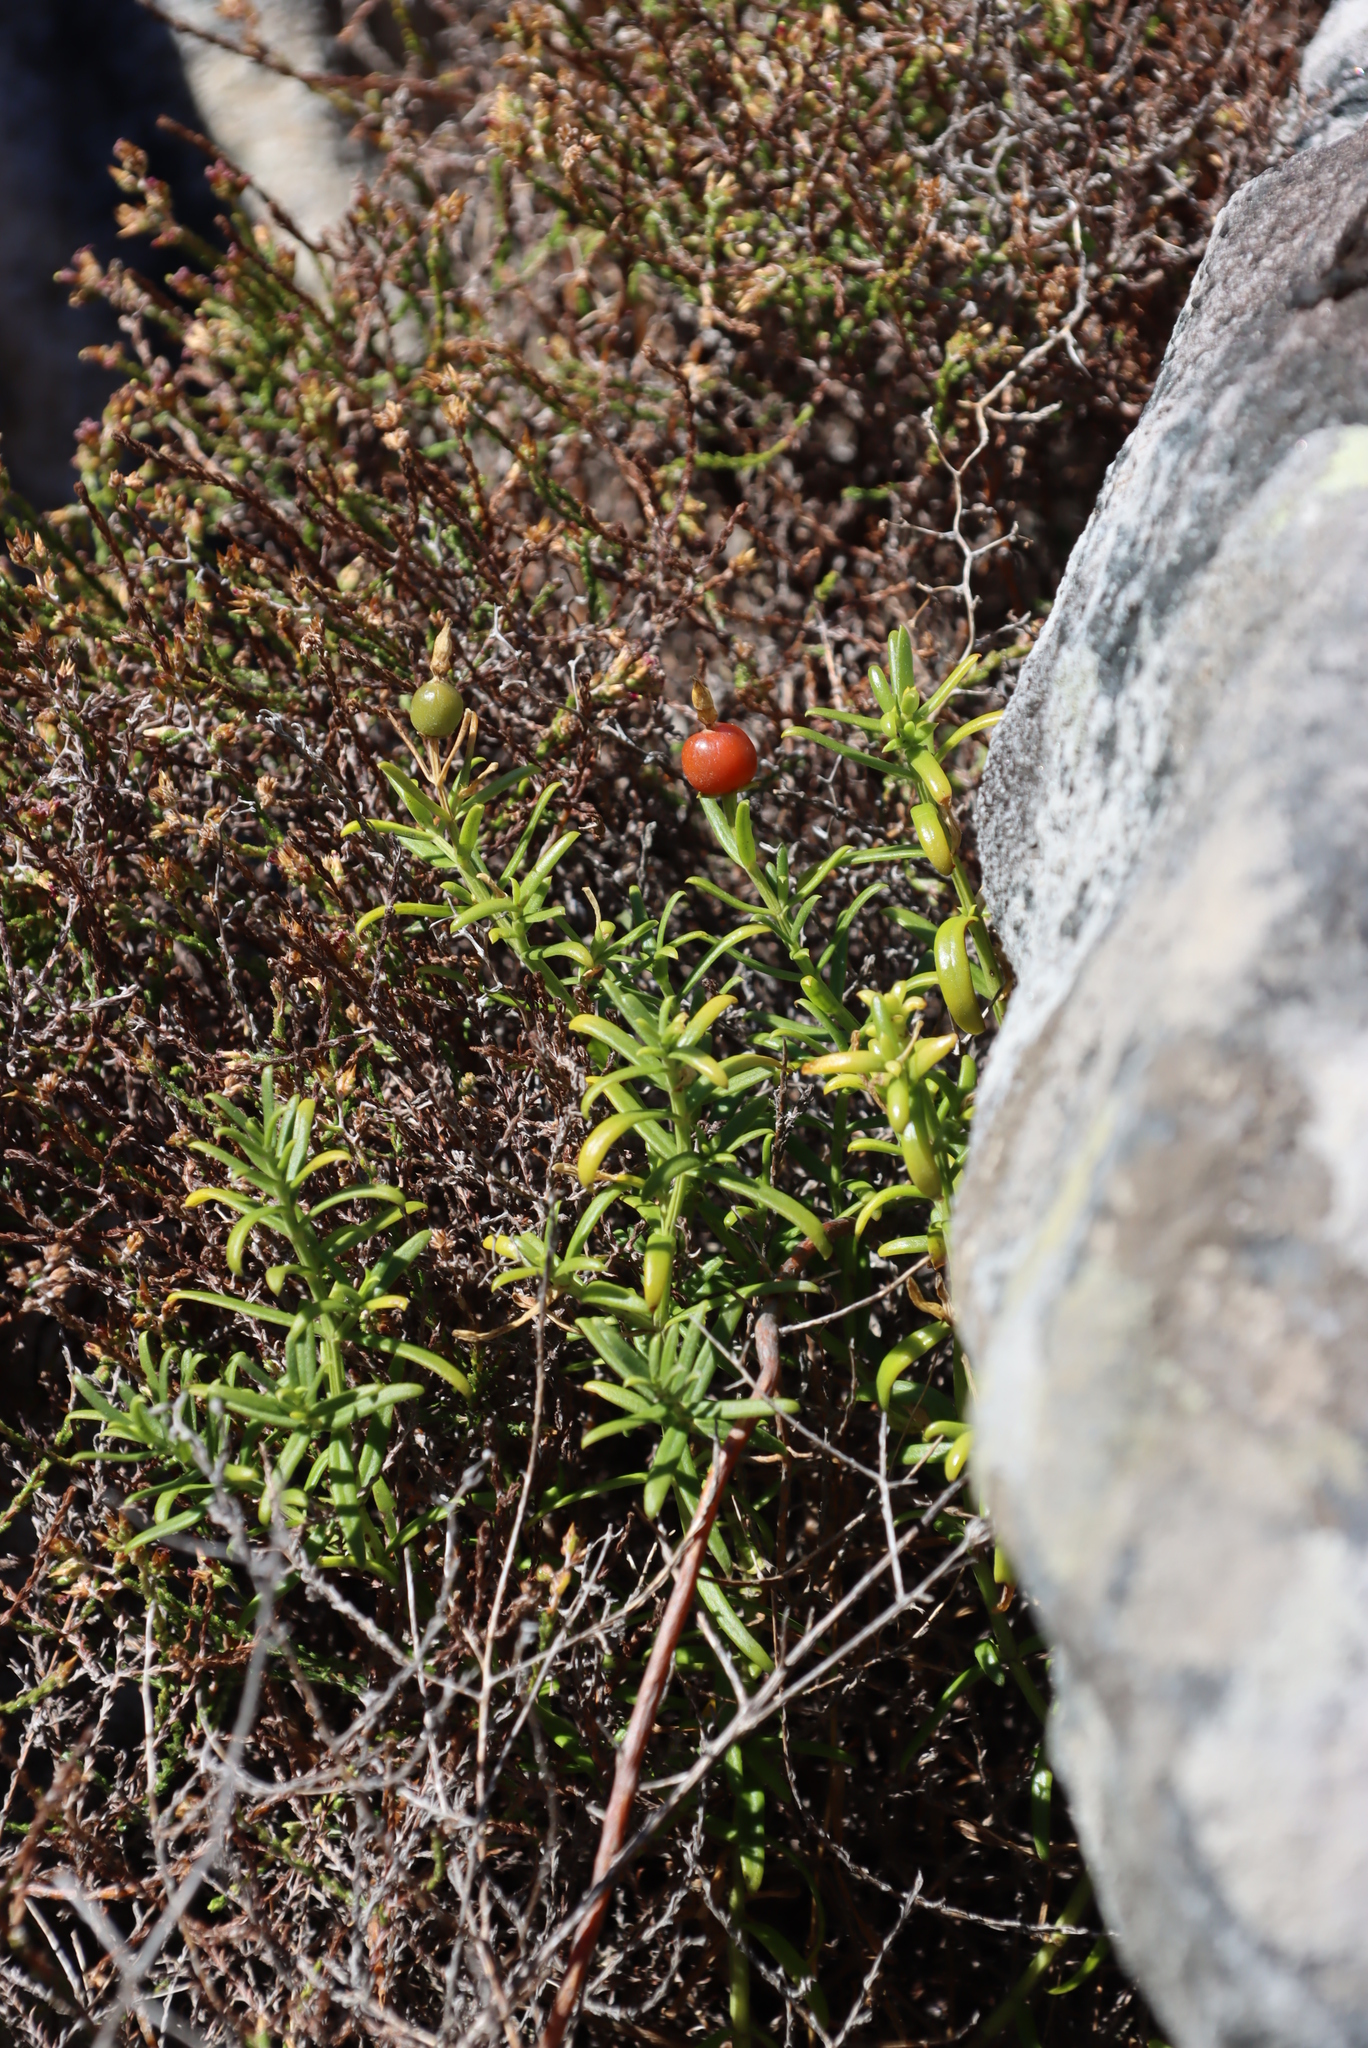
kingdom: Plantae
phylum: Tracheophyta
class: Magnoliopsida
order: Gentianales
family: Gentianaceae
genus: Chironia
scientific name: Chironia baccifera
